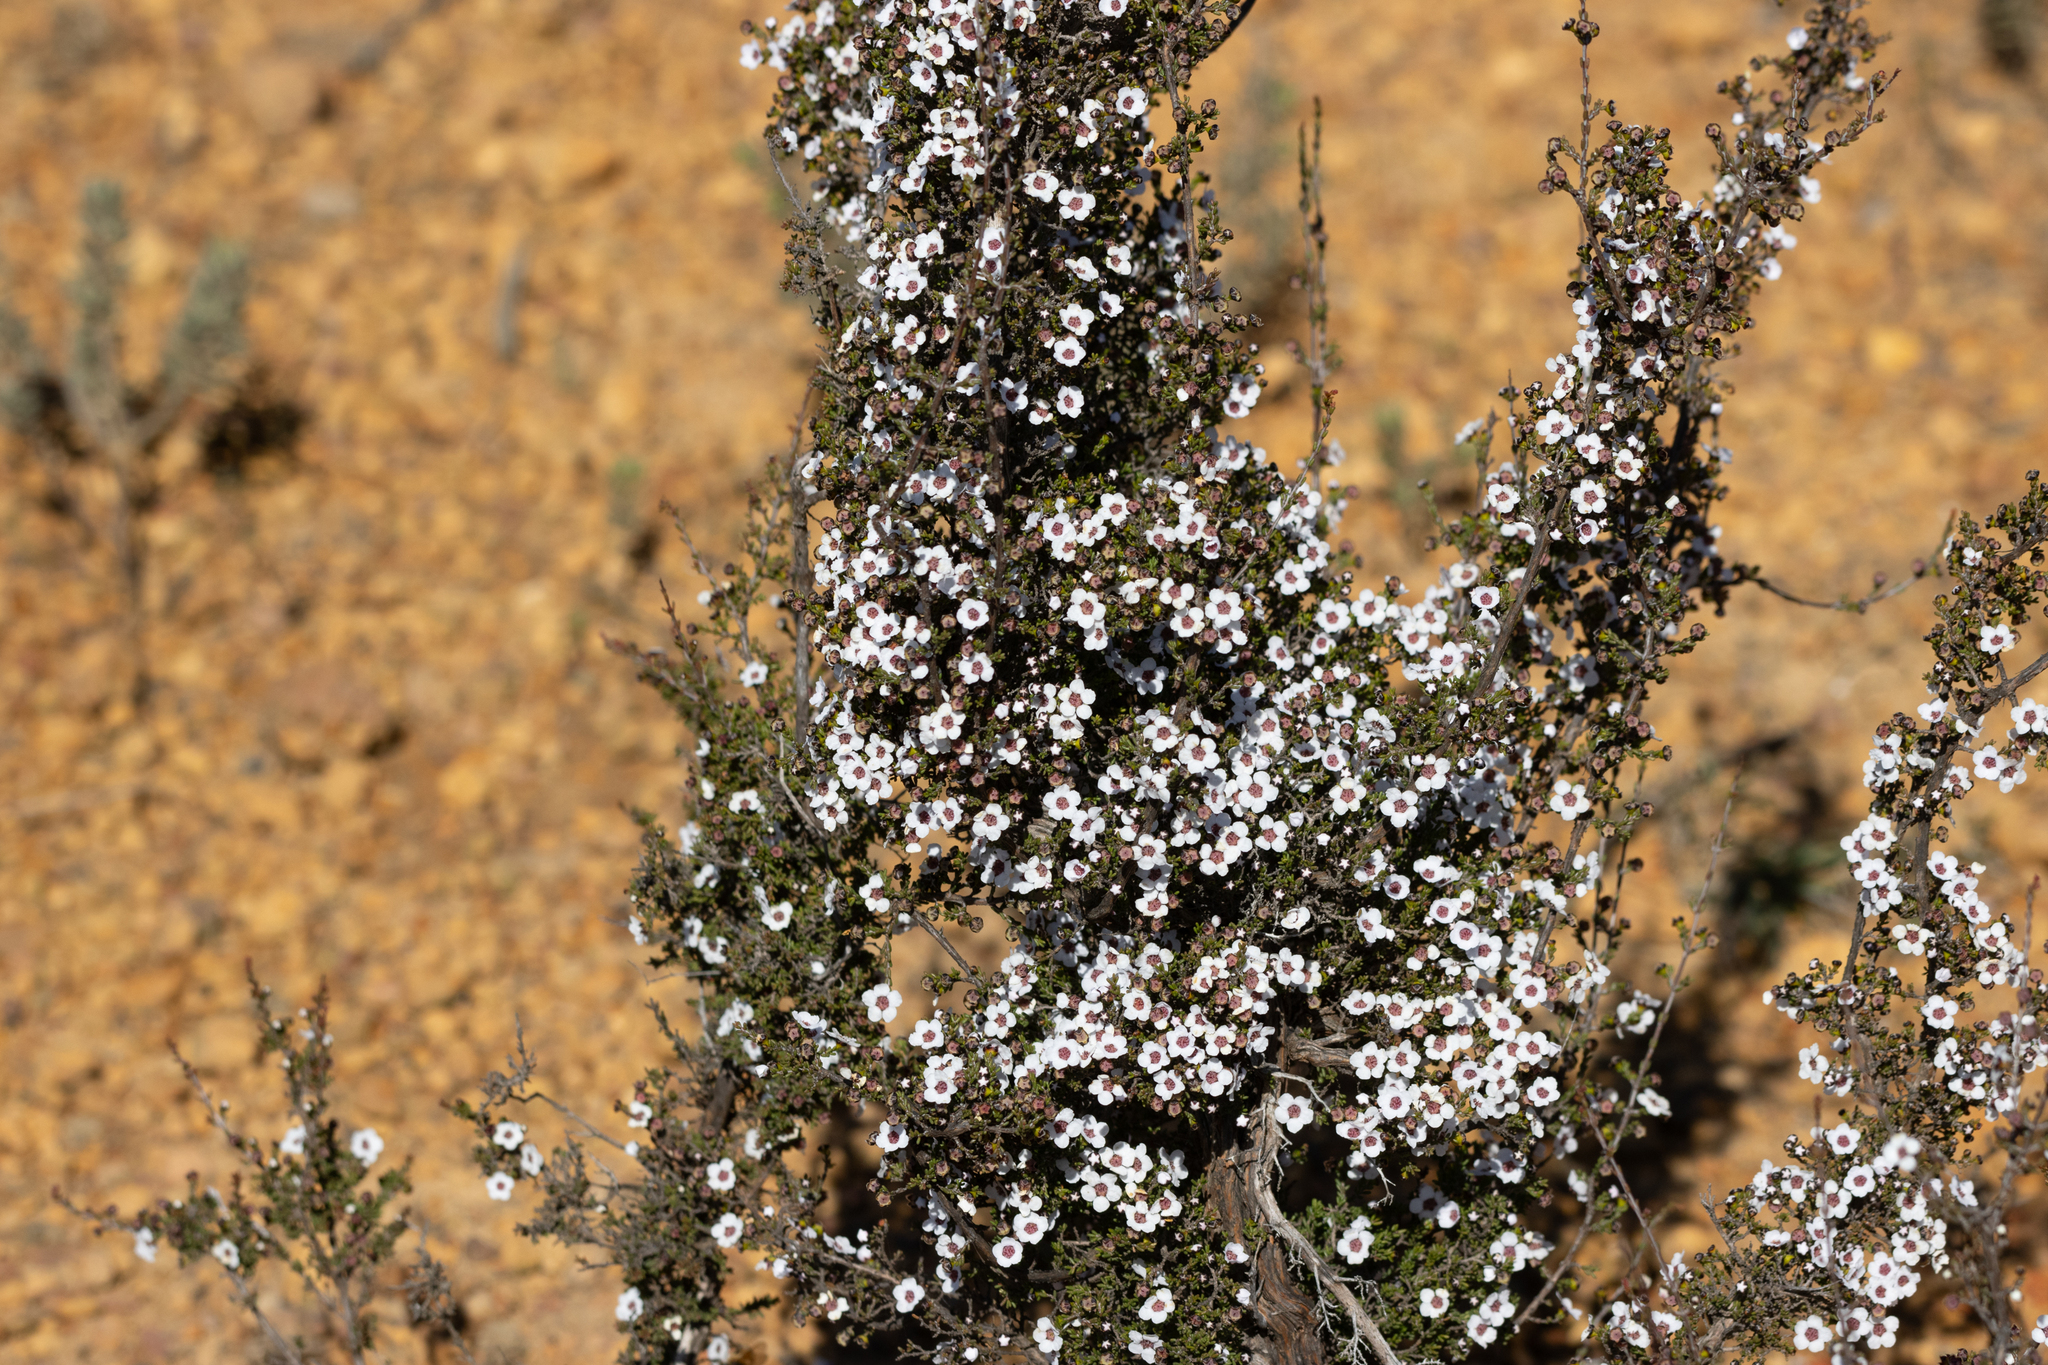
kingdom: Plantae
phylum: Tracheophyta
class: Magnoliopsida
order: Myrtales
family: Myrtaceae
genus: Rinzia
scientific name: Rinzia orientalis
